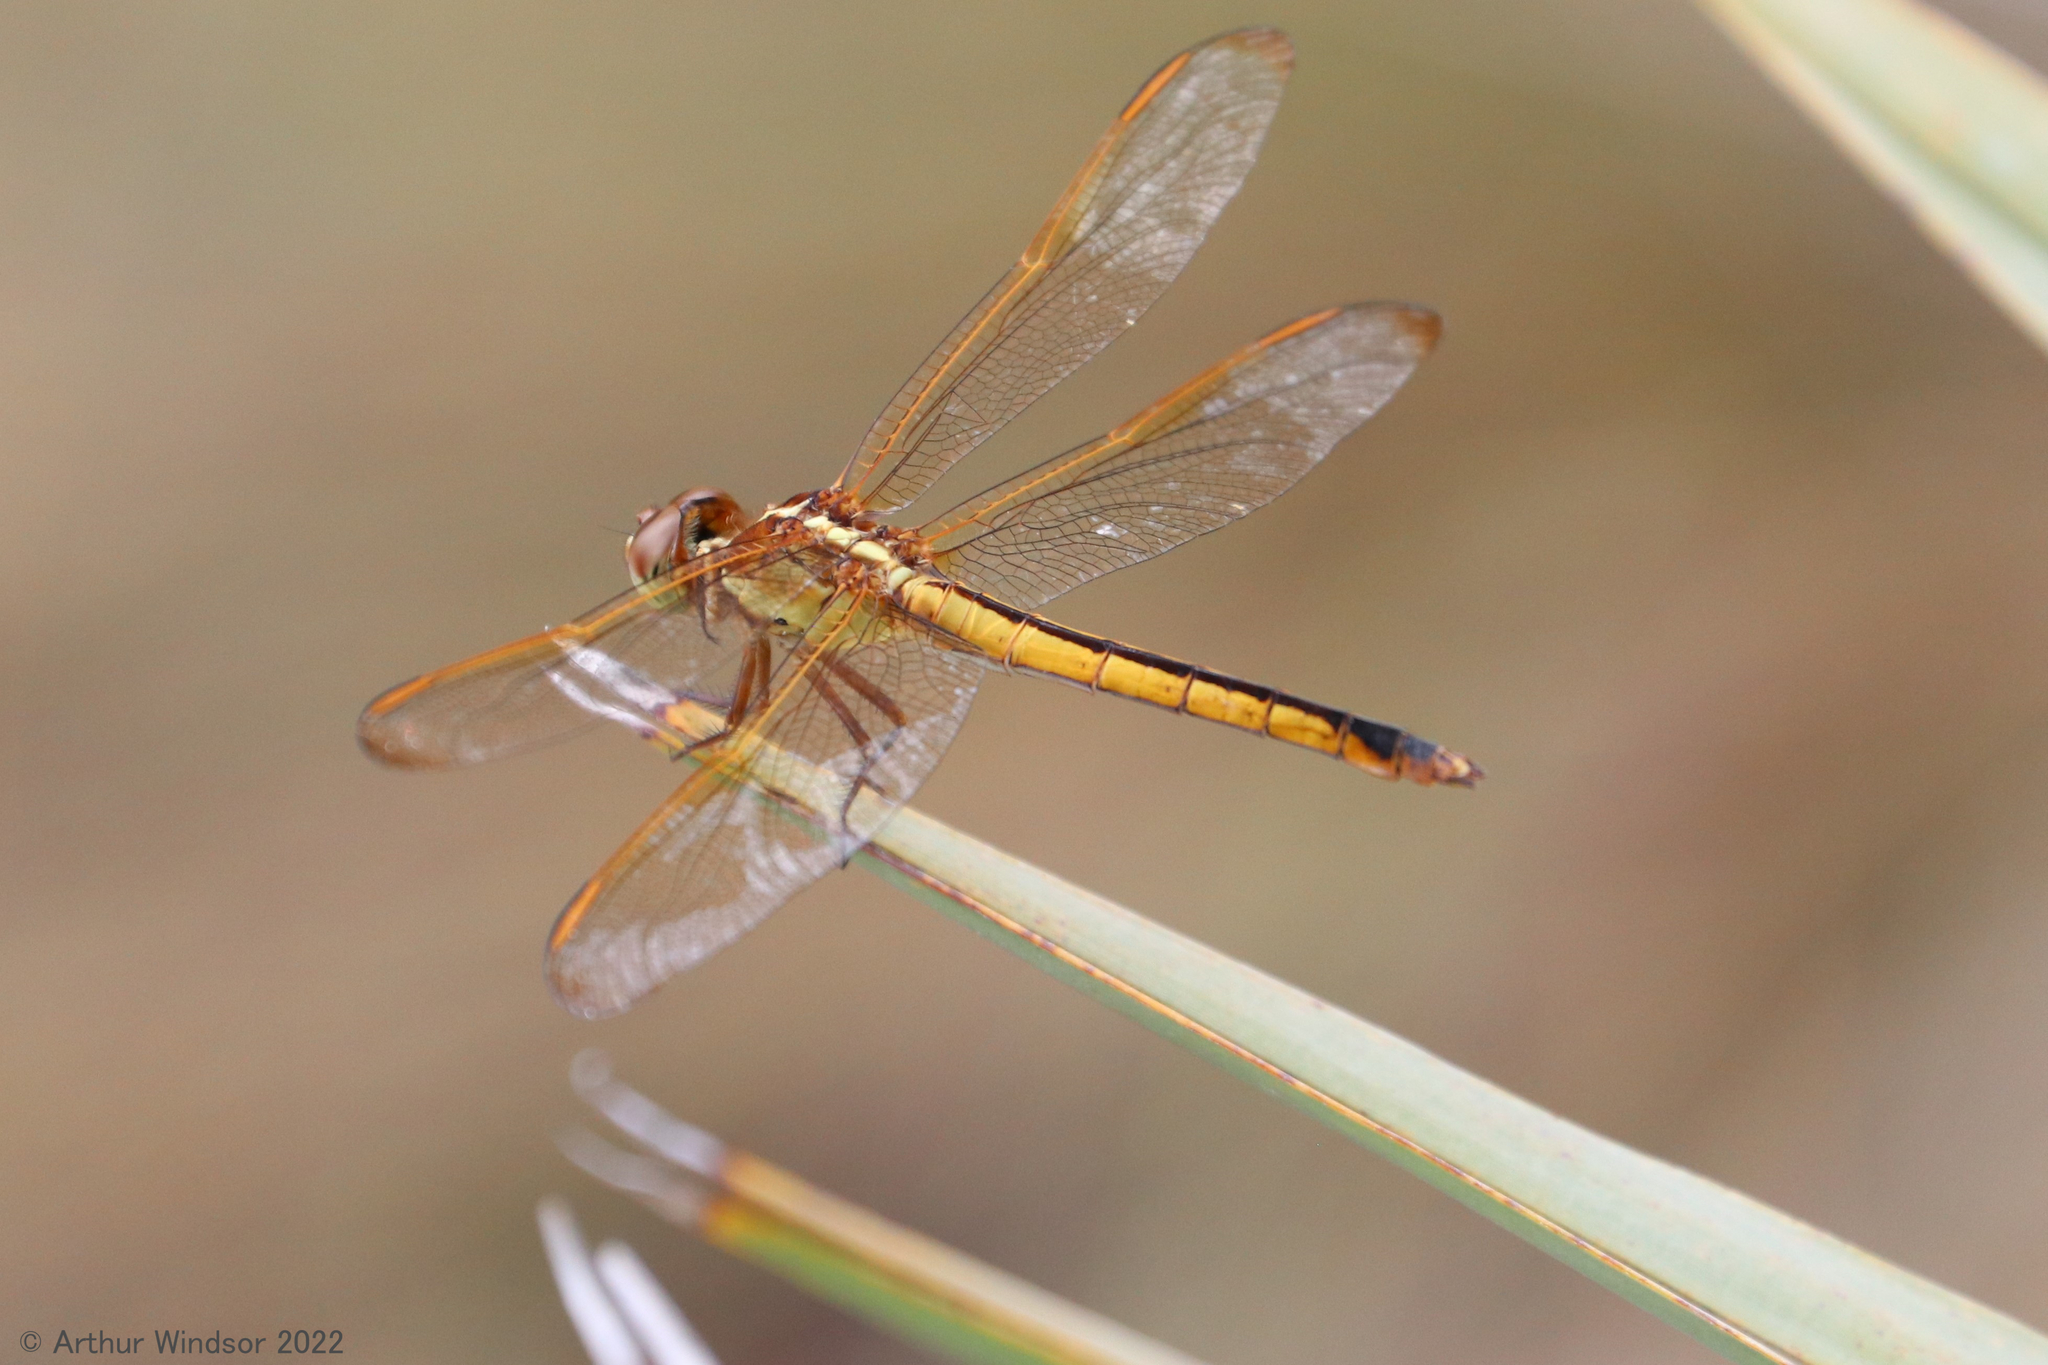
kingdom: Animalia
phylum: Arthropoda
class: Insecta
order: Odonata
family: Libellulidae
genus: Libellula
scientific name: Libellula needhami
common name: Needham's skimmer
